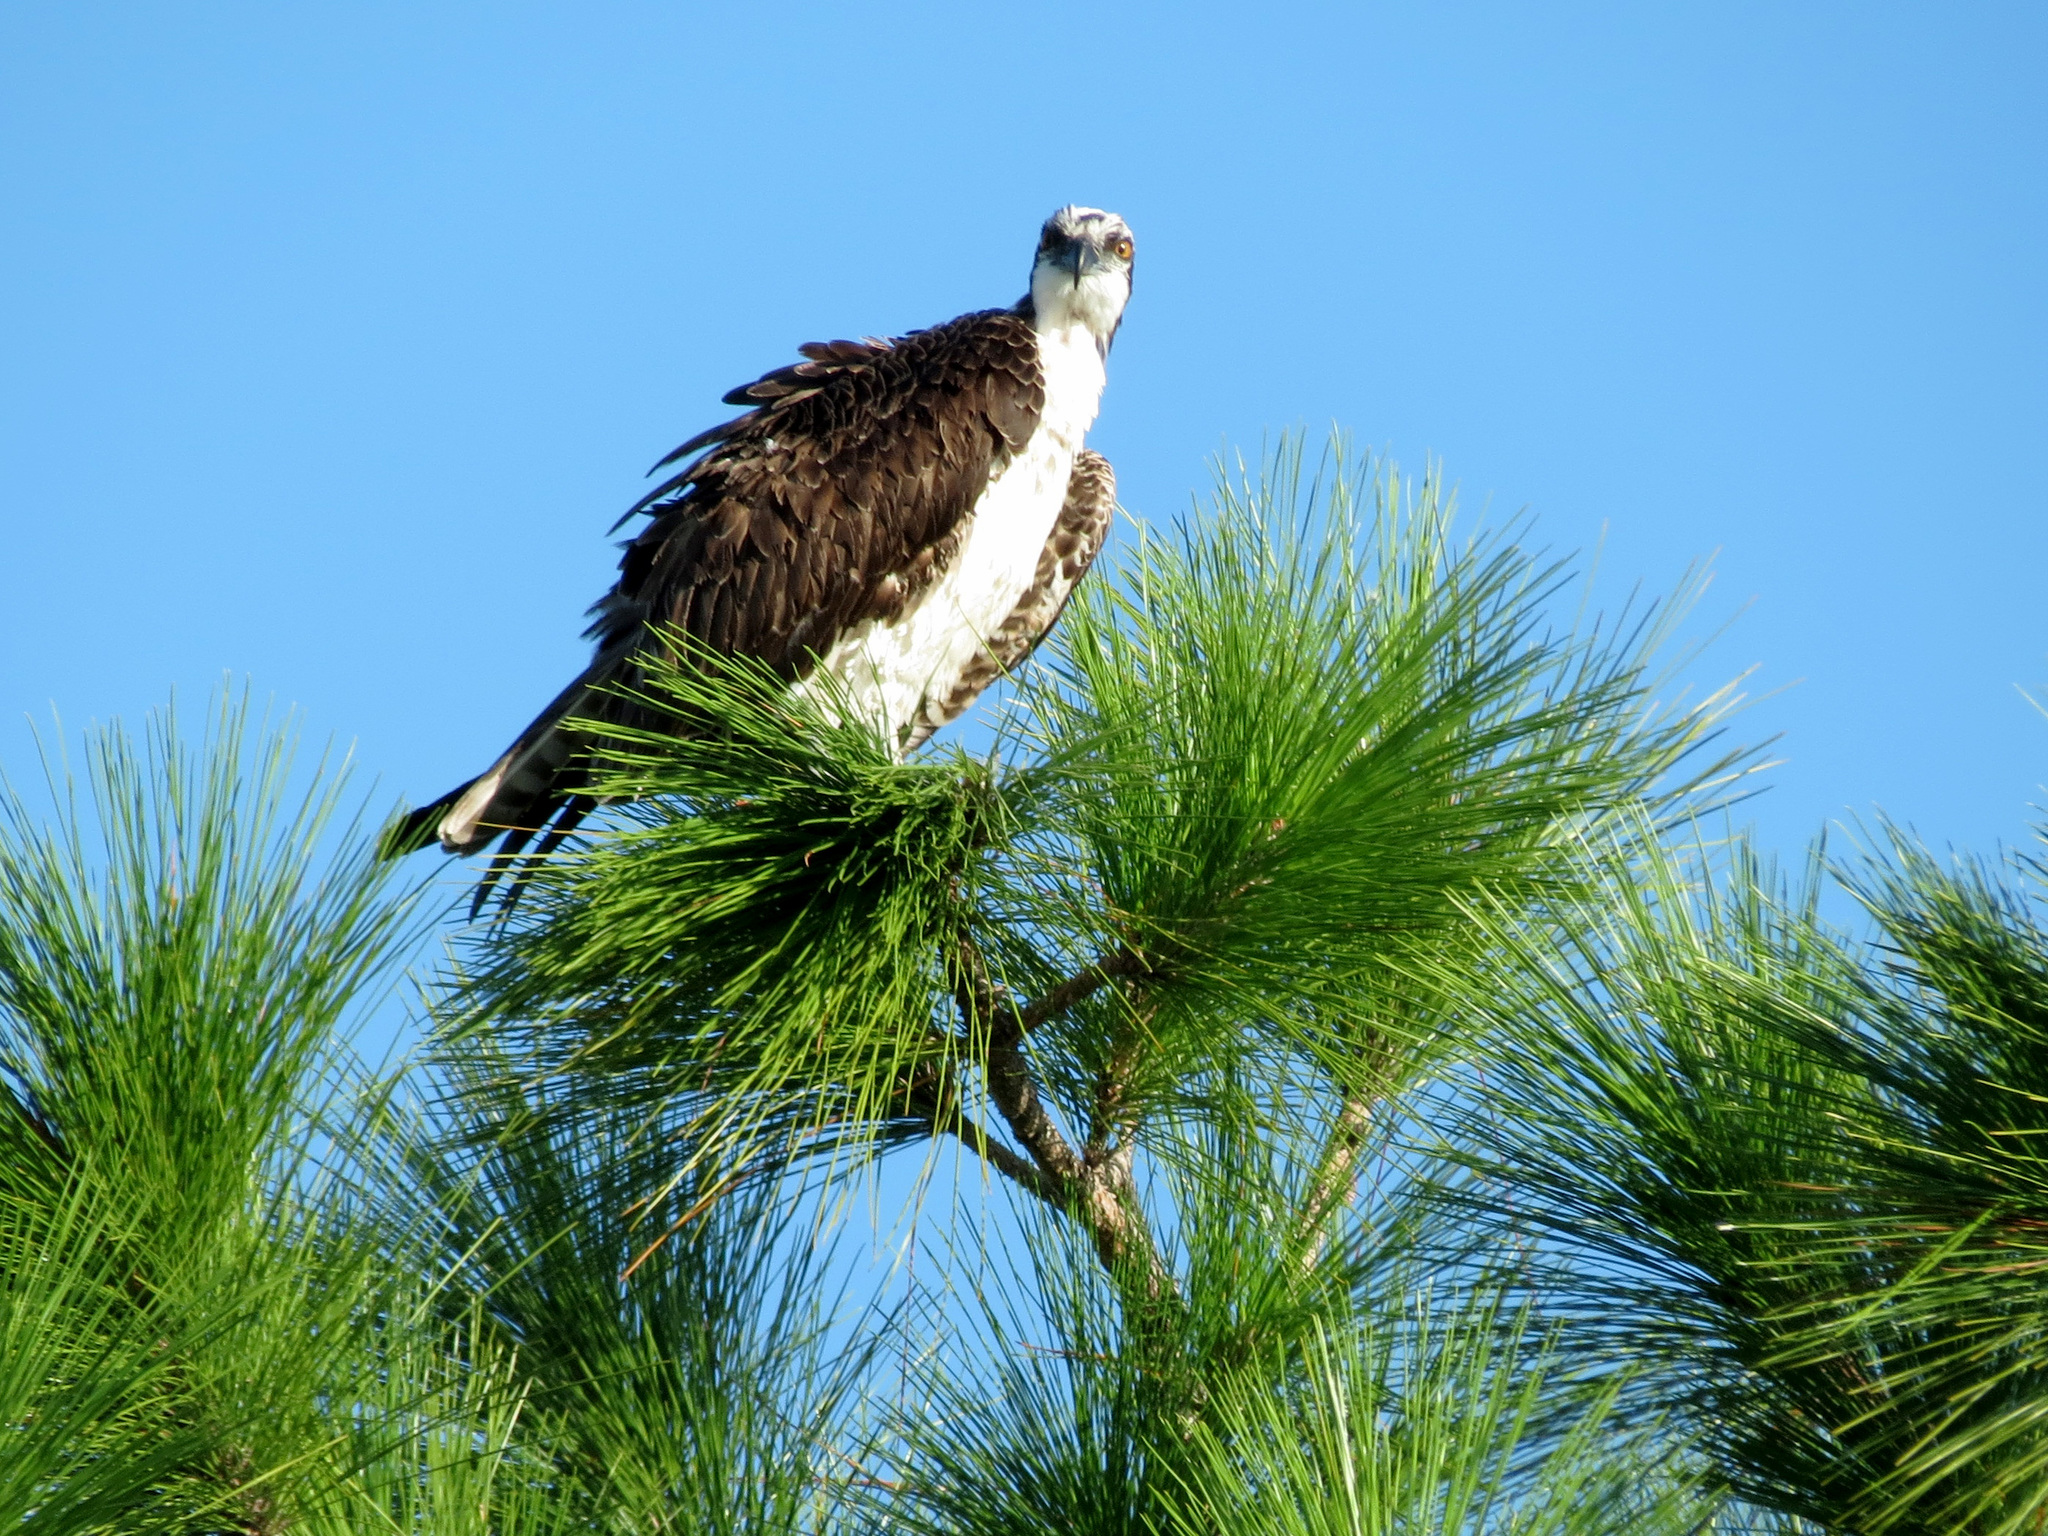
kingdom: Animalia
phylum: Chordata
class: Aves
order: Accipitriformes
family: Pandionidae
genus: Pandion
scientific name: Pandion haliaetus
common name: Osprey
